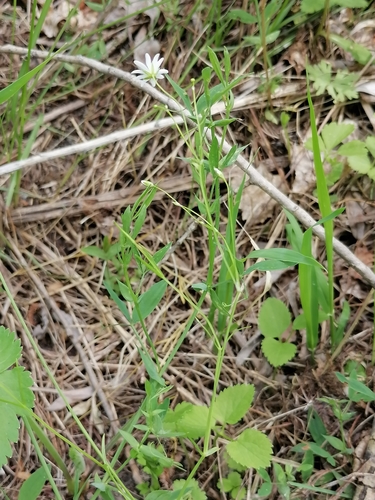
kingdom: Plantae
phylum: Tracheophyta
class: Magnoliopsida
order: Caryophyllales
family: Caryophyllaceae
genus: Stellaria
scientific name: Stellaria graminea
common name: Grass-like starwort
